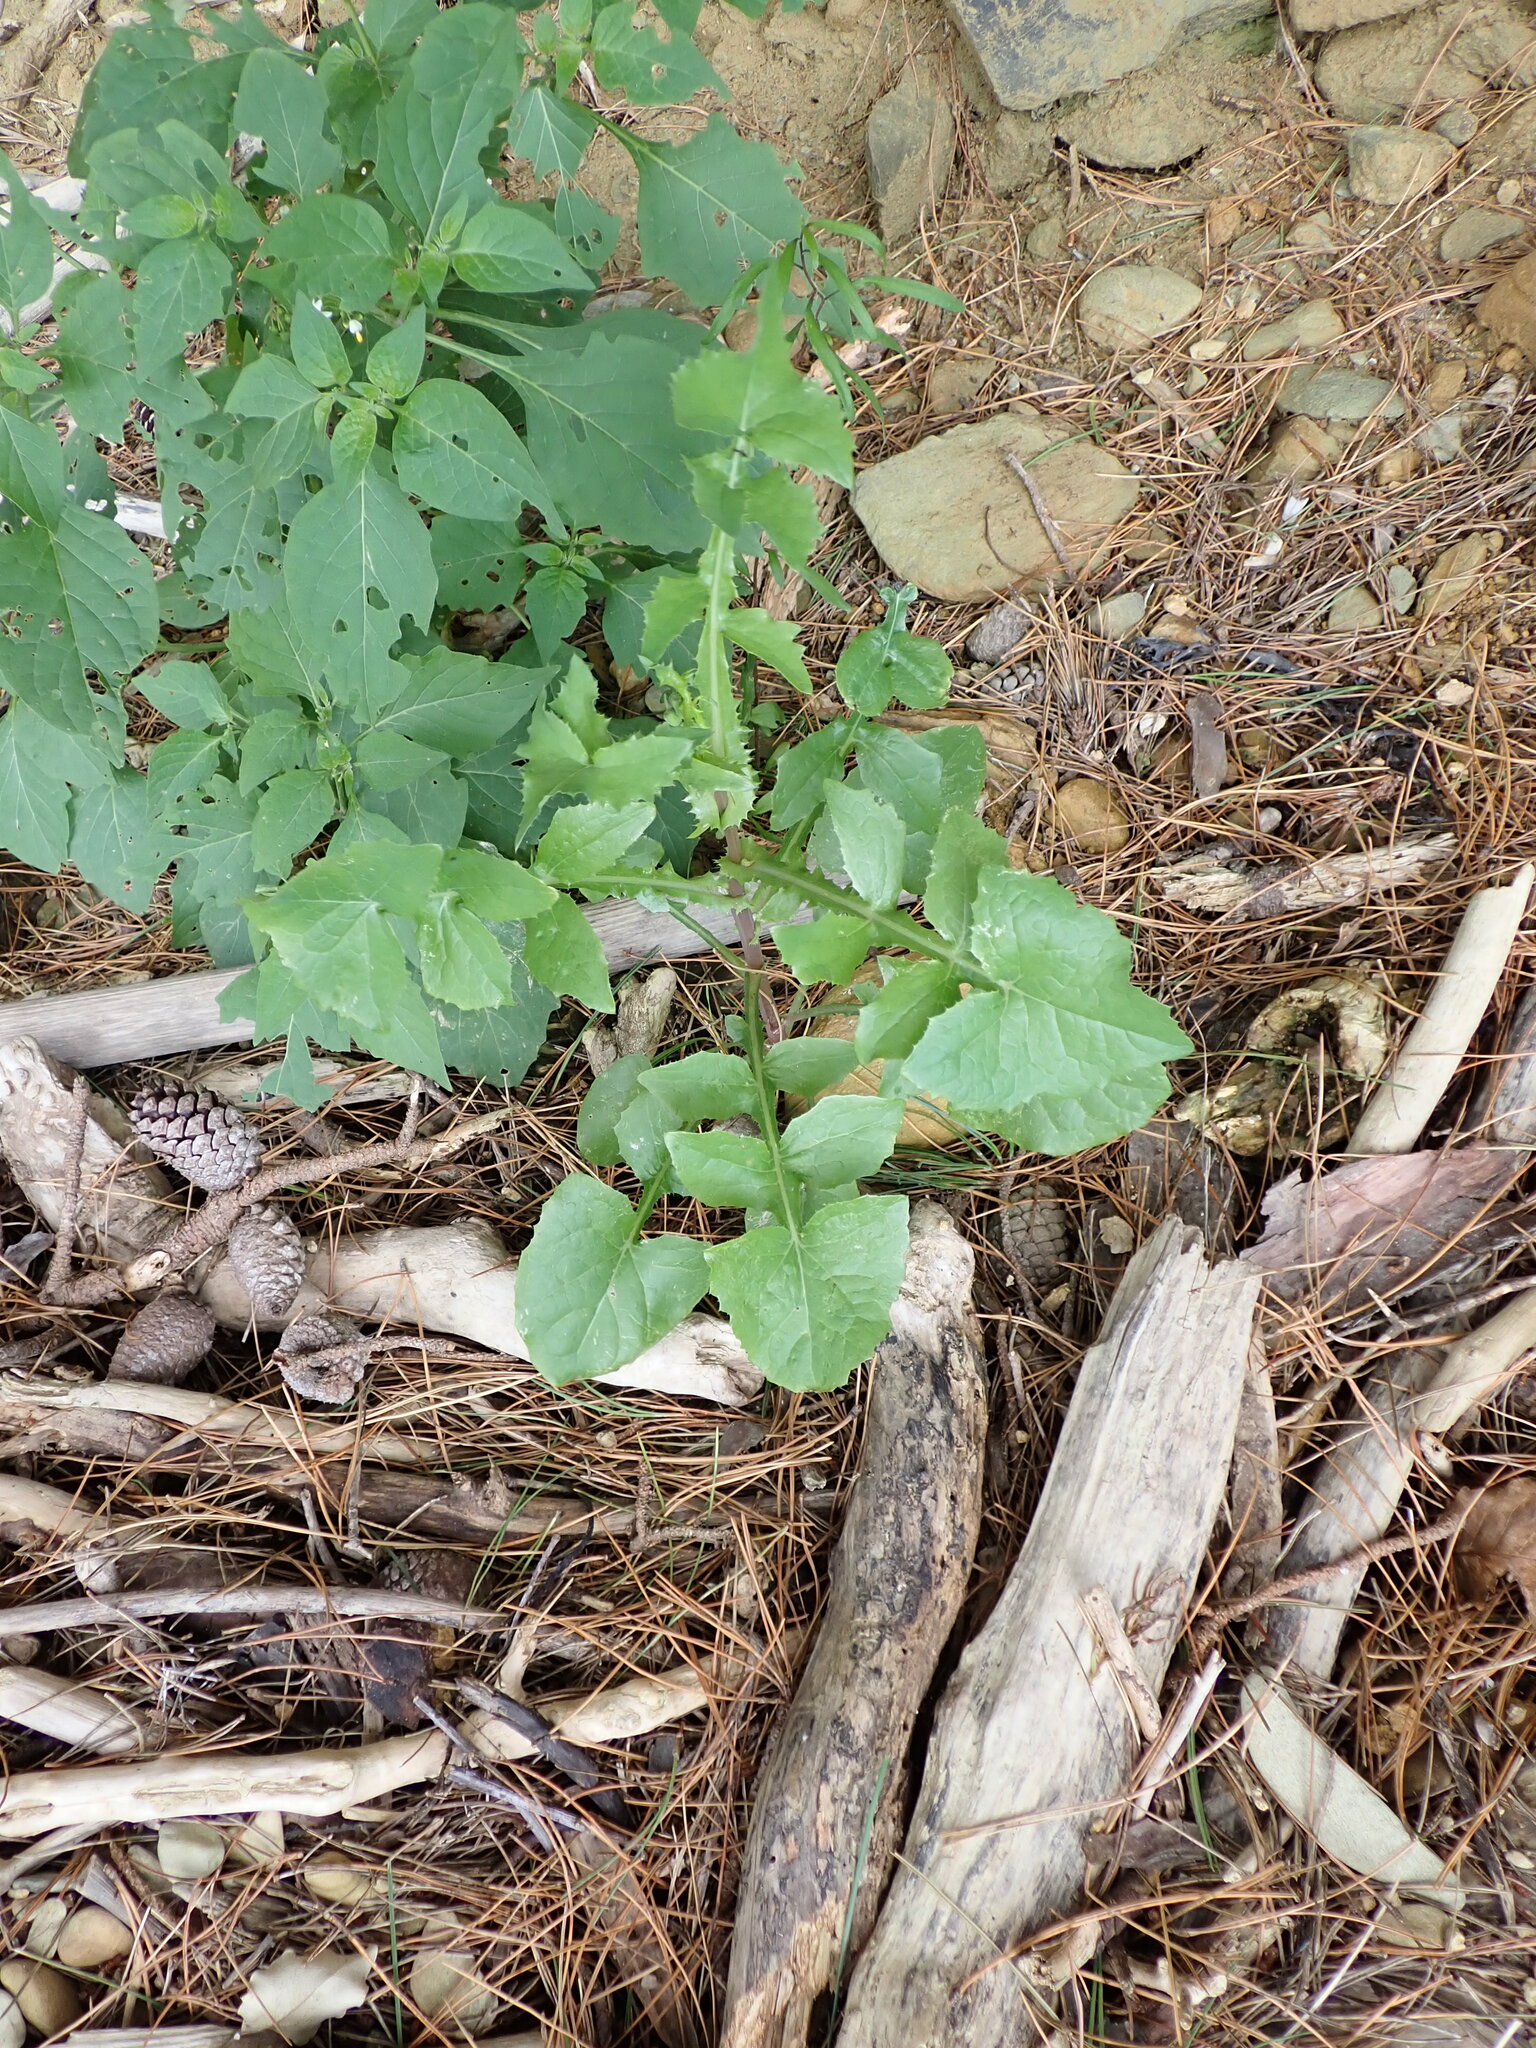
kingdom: Plantae
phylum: Tracheophyta
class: Magnoliopsida
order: Asterales
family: Asteraceae
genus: Sonchus
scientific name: Sonchus oleraceus
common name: Common sowthistle
